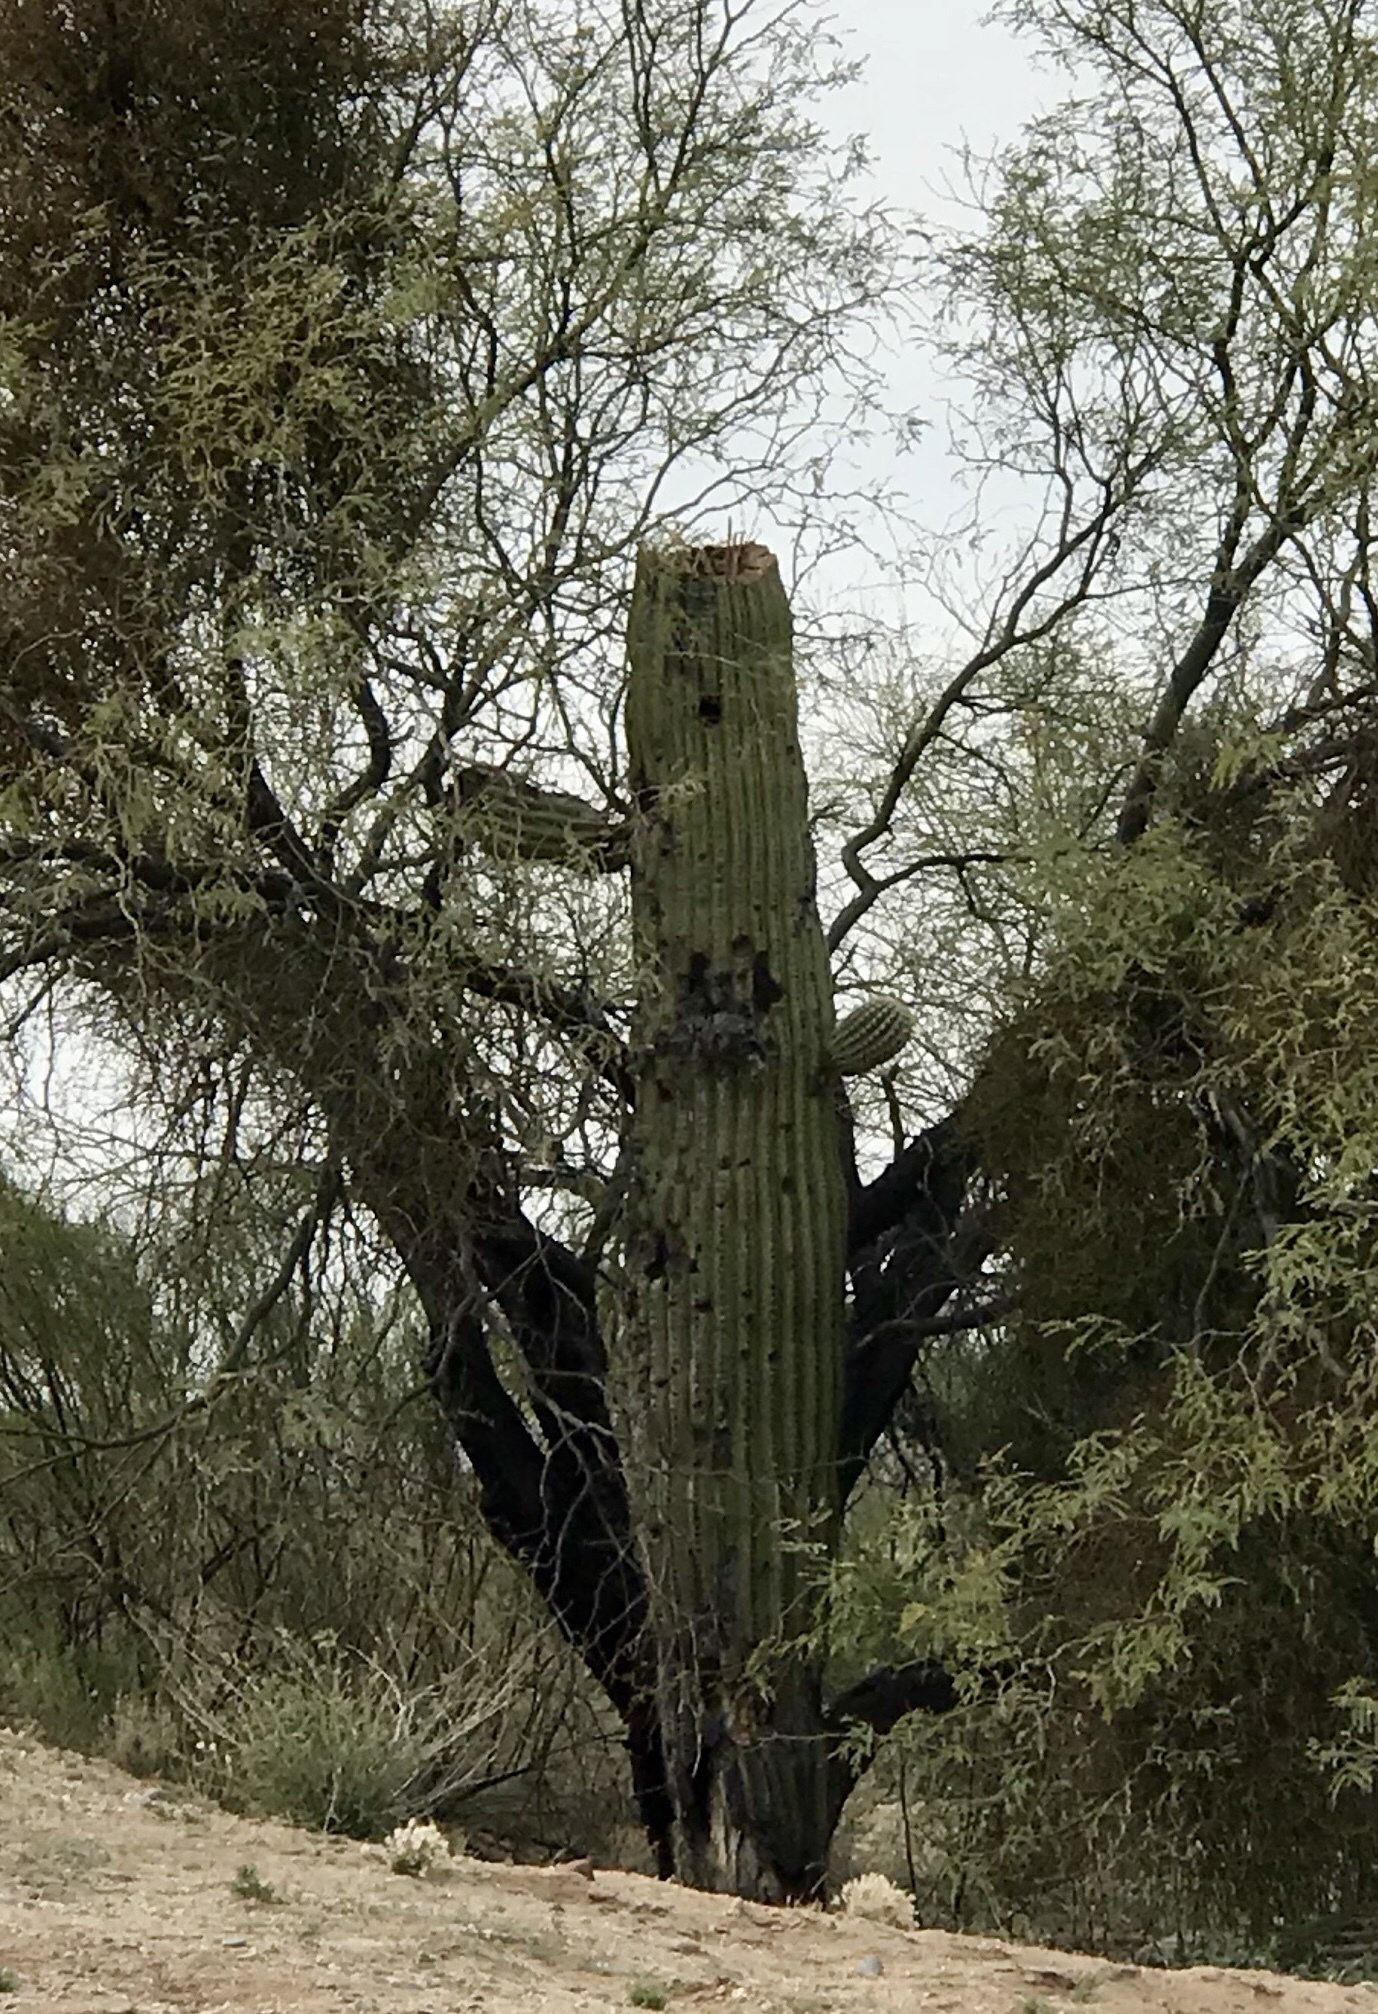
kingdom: Plantae
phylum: Tracheophyta
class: Magnoliopsida
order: Caryophyllales
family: Cactaceae
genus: Carnegiea
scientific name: Carnegiea gigantea
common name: Saguaro
